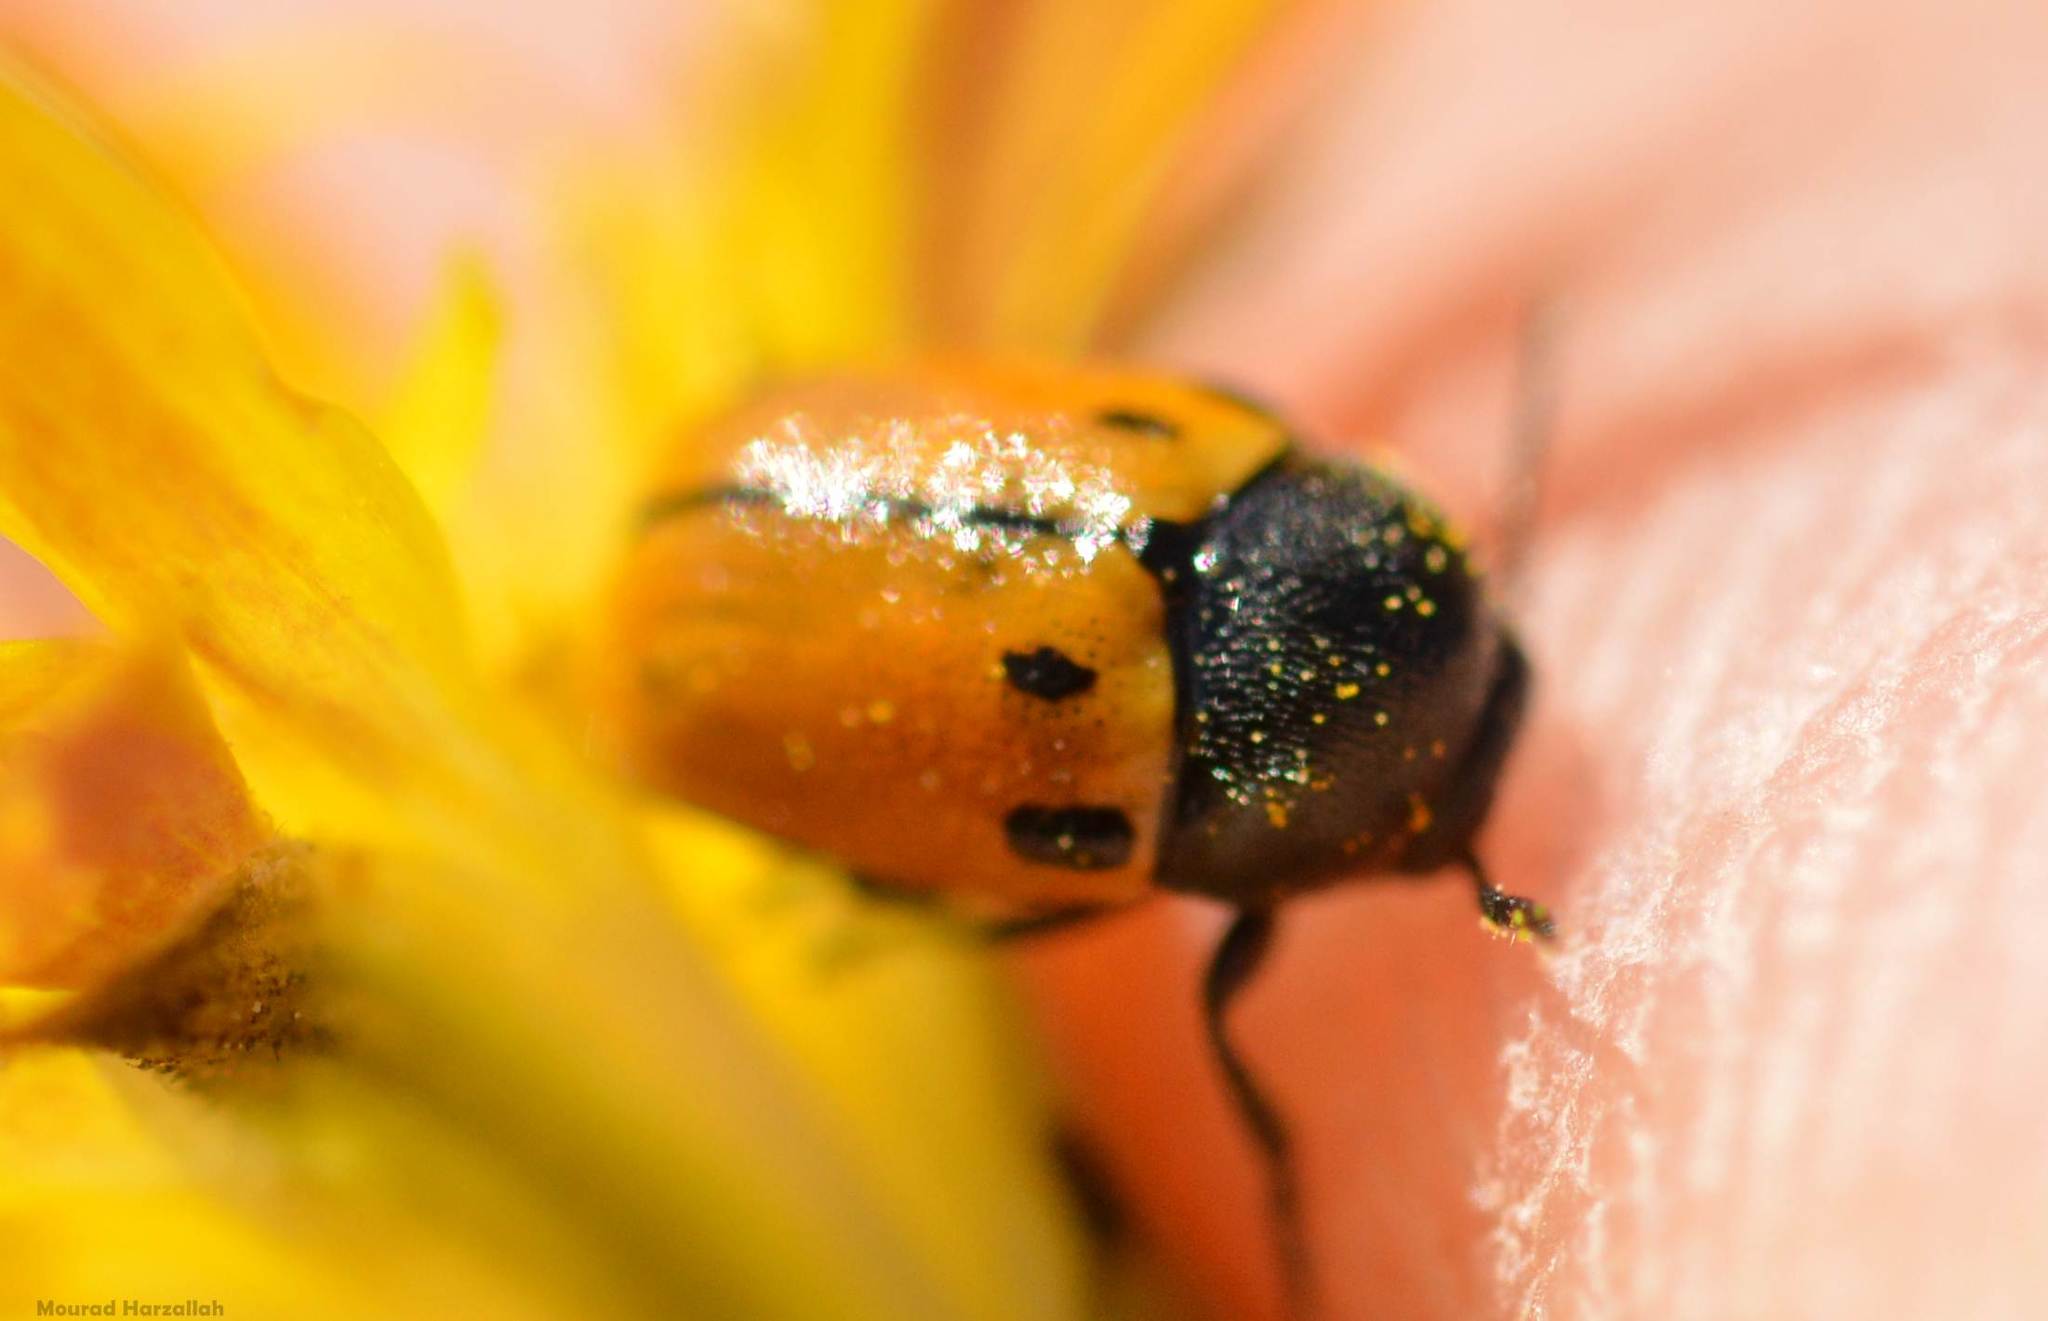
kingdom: Animalia
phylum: Arthropoda
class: Insecta
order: Coleoptera
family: Chrysomelidae
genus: Cryptocephalus
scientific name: Cryptocephalus rugicollis
